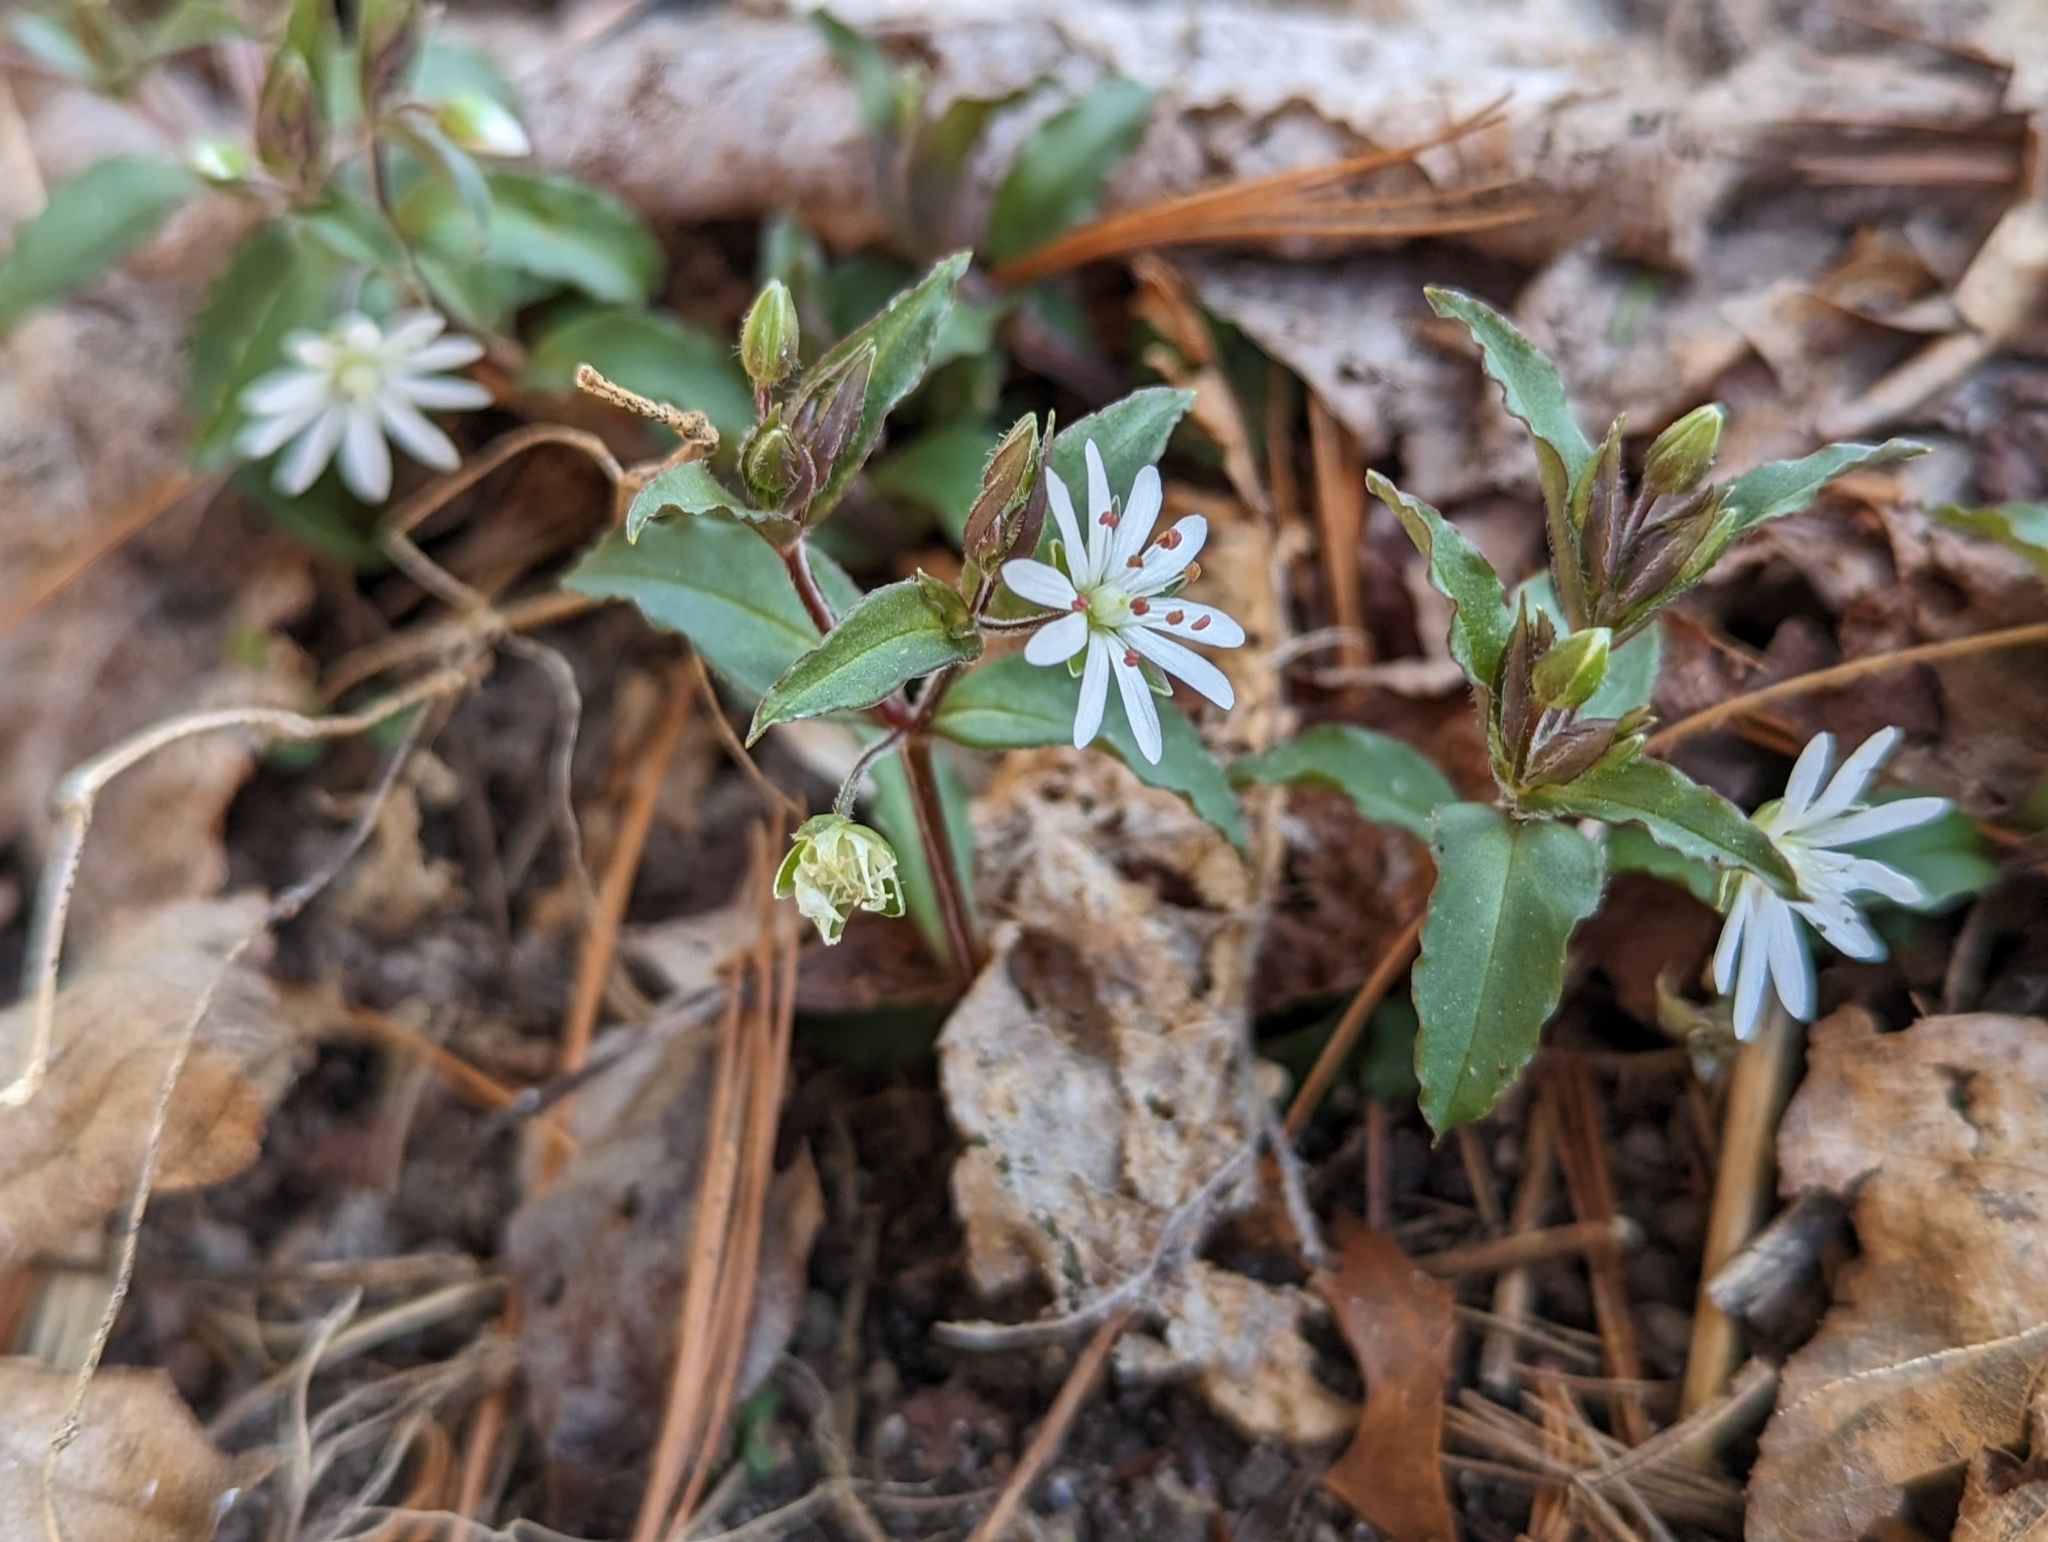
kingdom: Plantae
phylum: Tracheophyta
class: Magnoliopsida
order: Caryophyllales
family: Caryophyllaceae
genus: Stellaria
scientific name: Stellaria pubera
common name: Star chickweed
